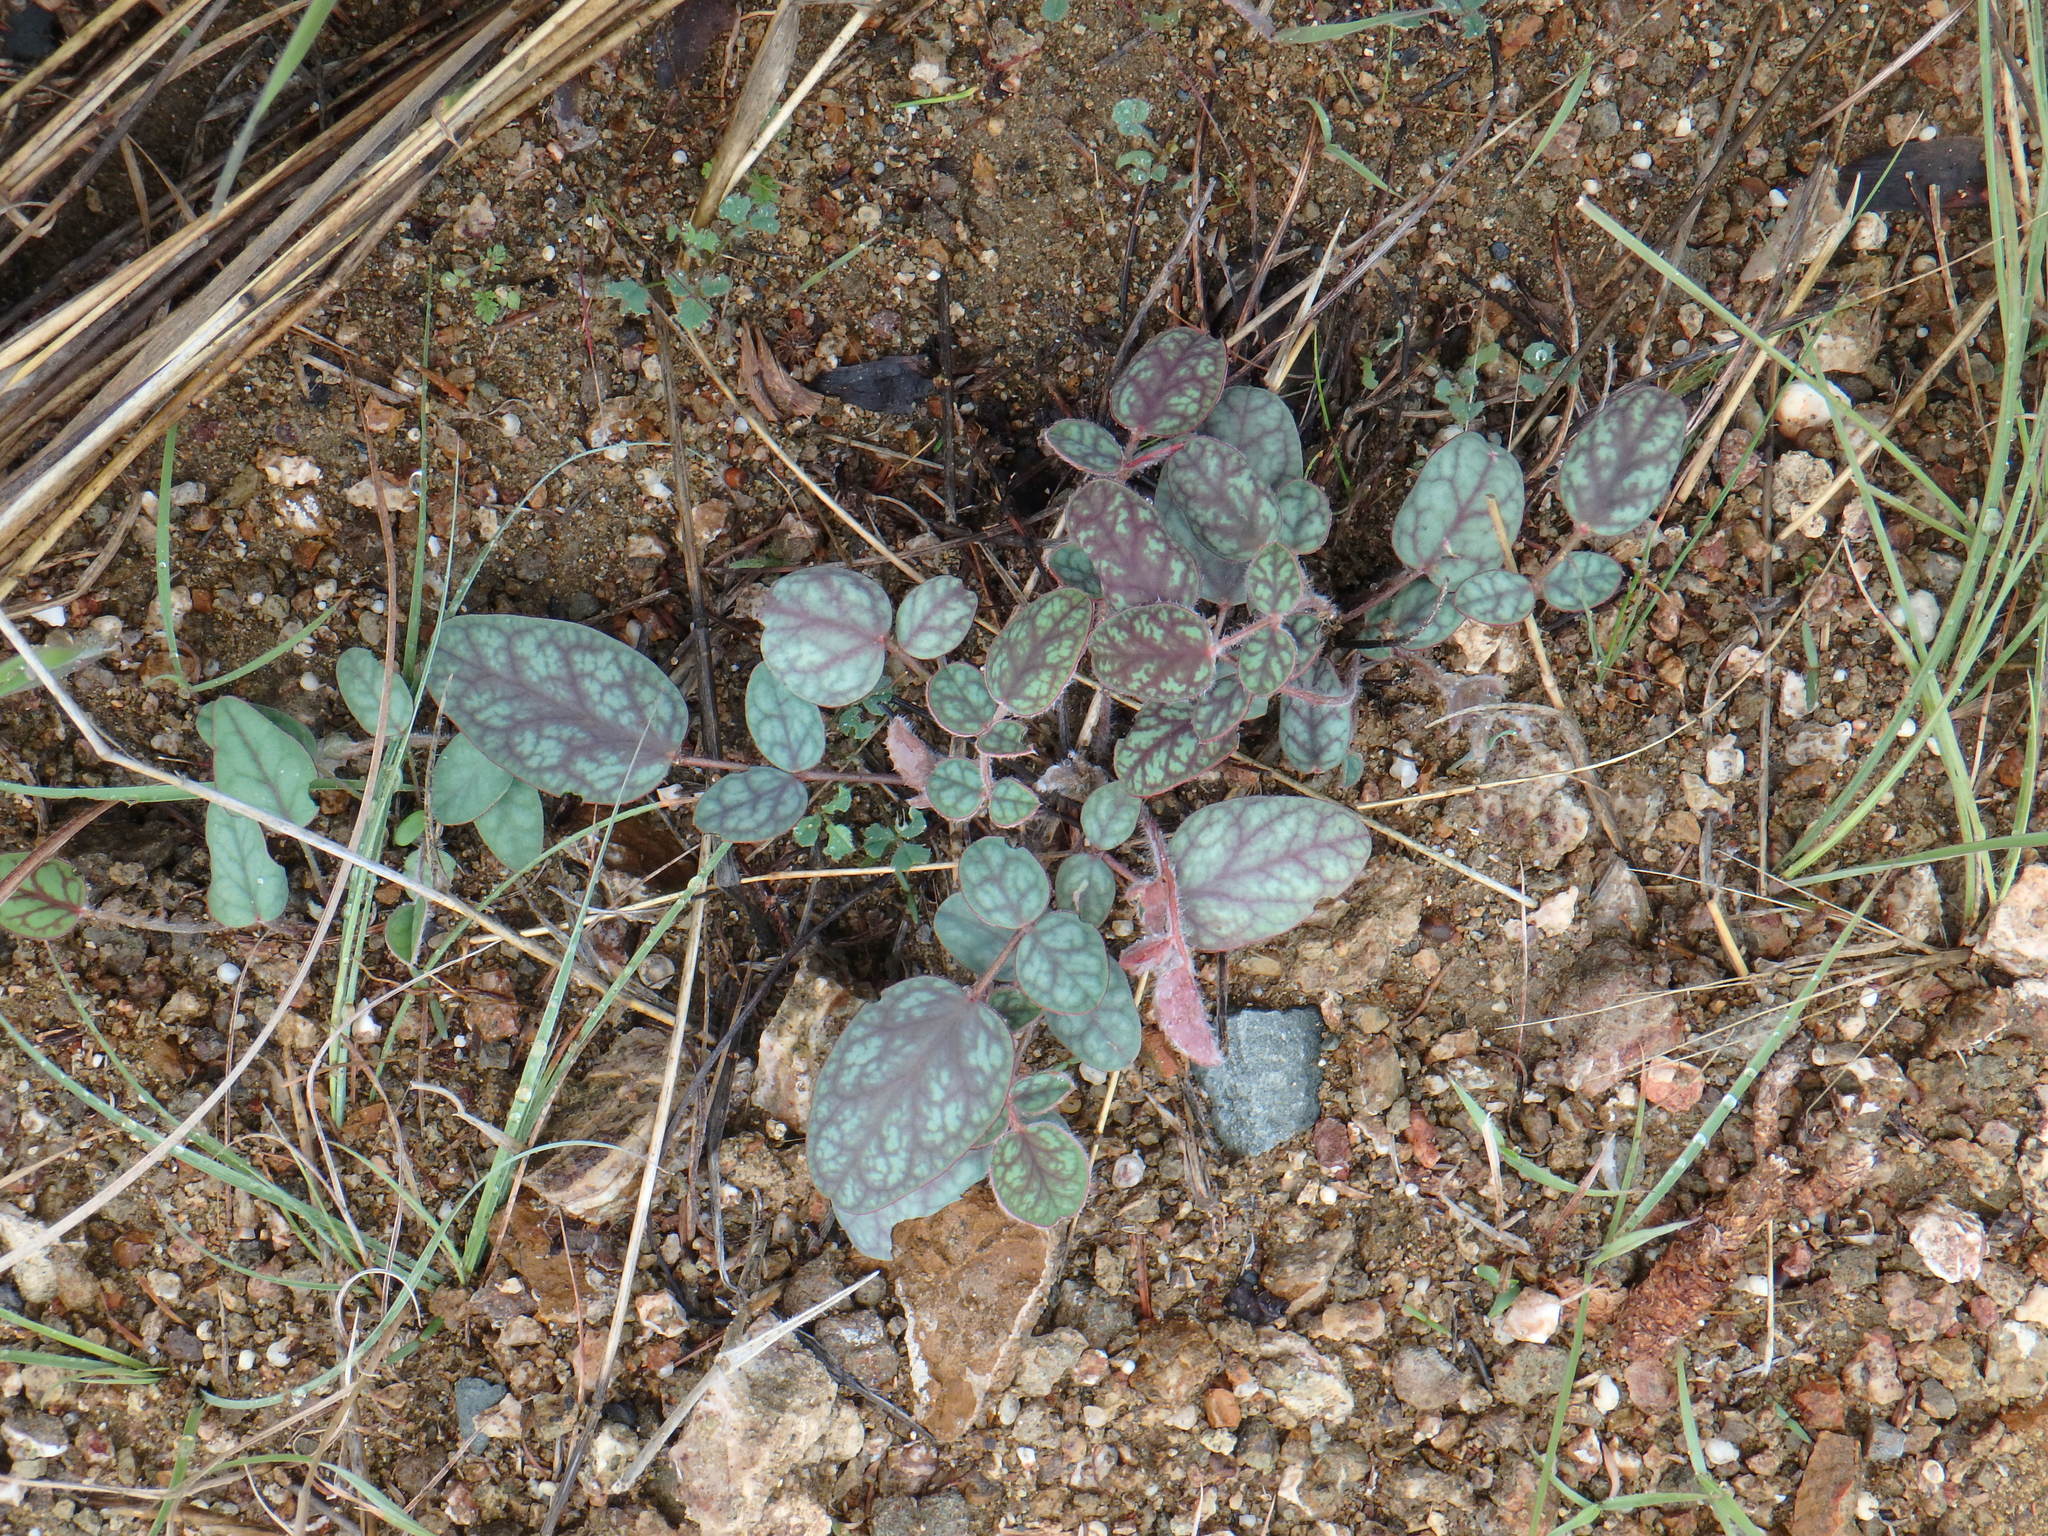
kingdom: Plantae
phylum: Tracheophyta
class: Magnoliopsida
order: Fabales
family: Fabaceae
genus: Onobrychis
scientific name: Onobrychis venosa
